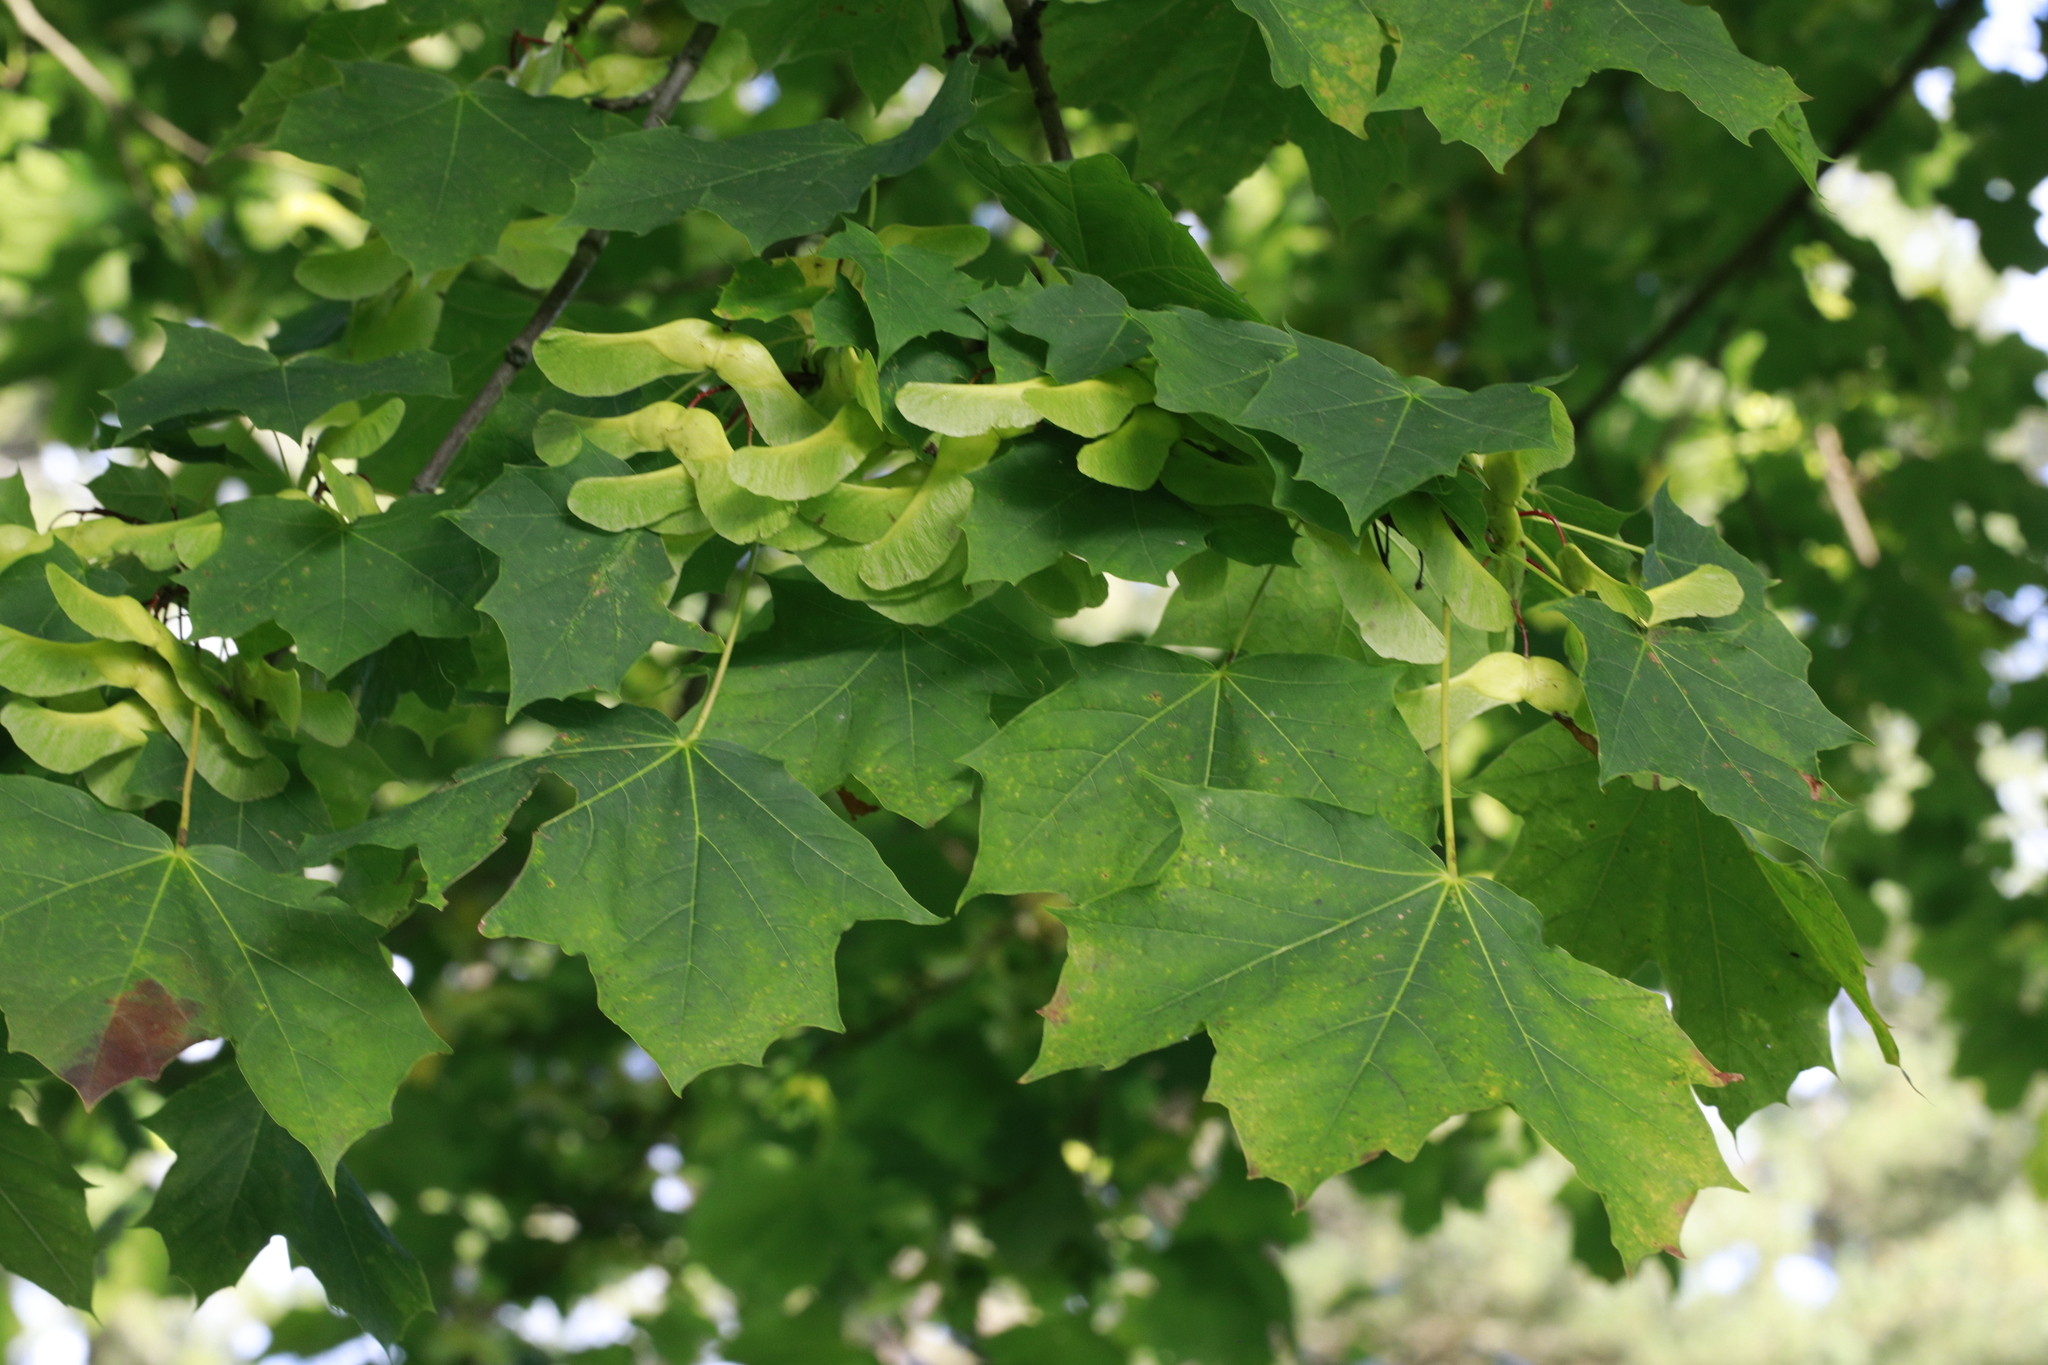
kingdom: Plantae
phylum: Tracheophyta
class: Magnoliopsida
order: Sapindales
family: Sapindaceae
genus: Acer
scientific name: Acer platanoides
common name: Norway maple
